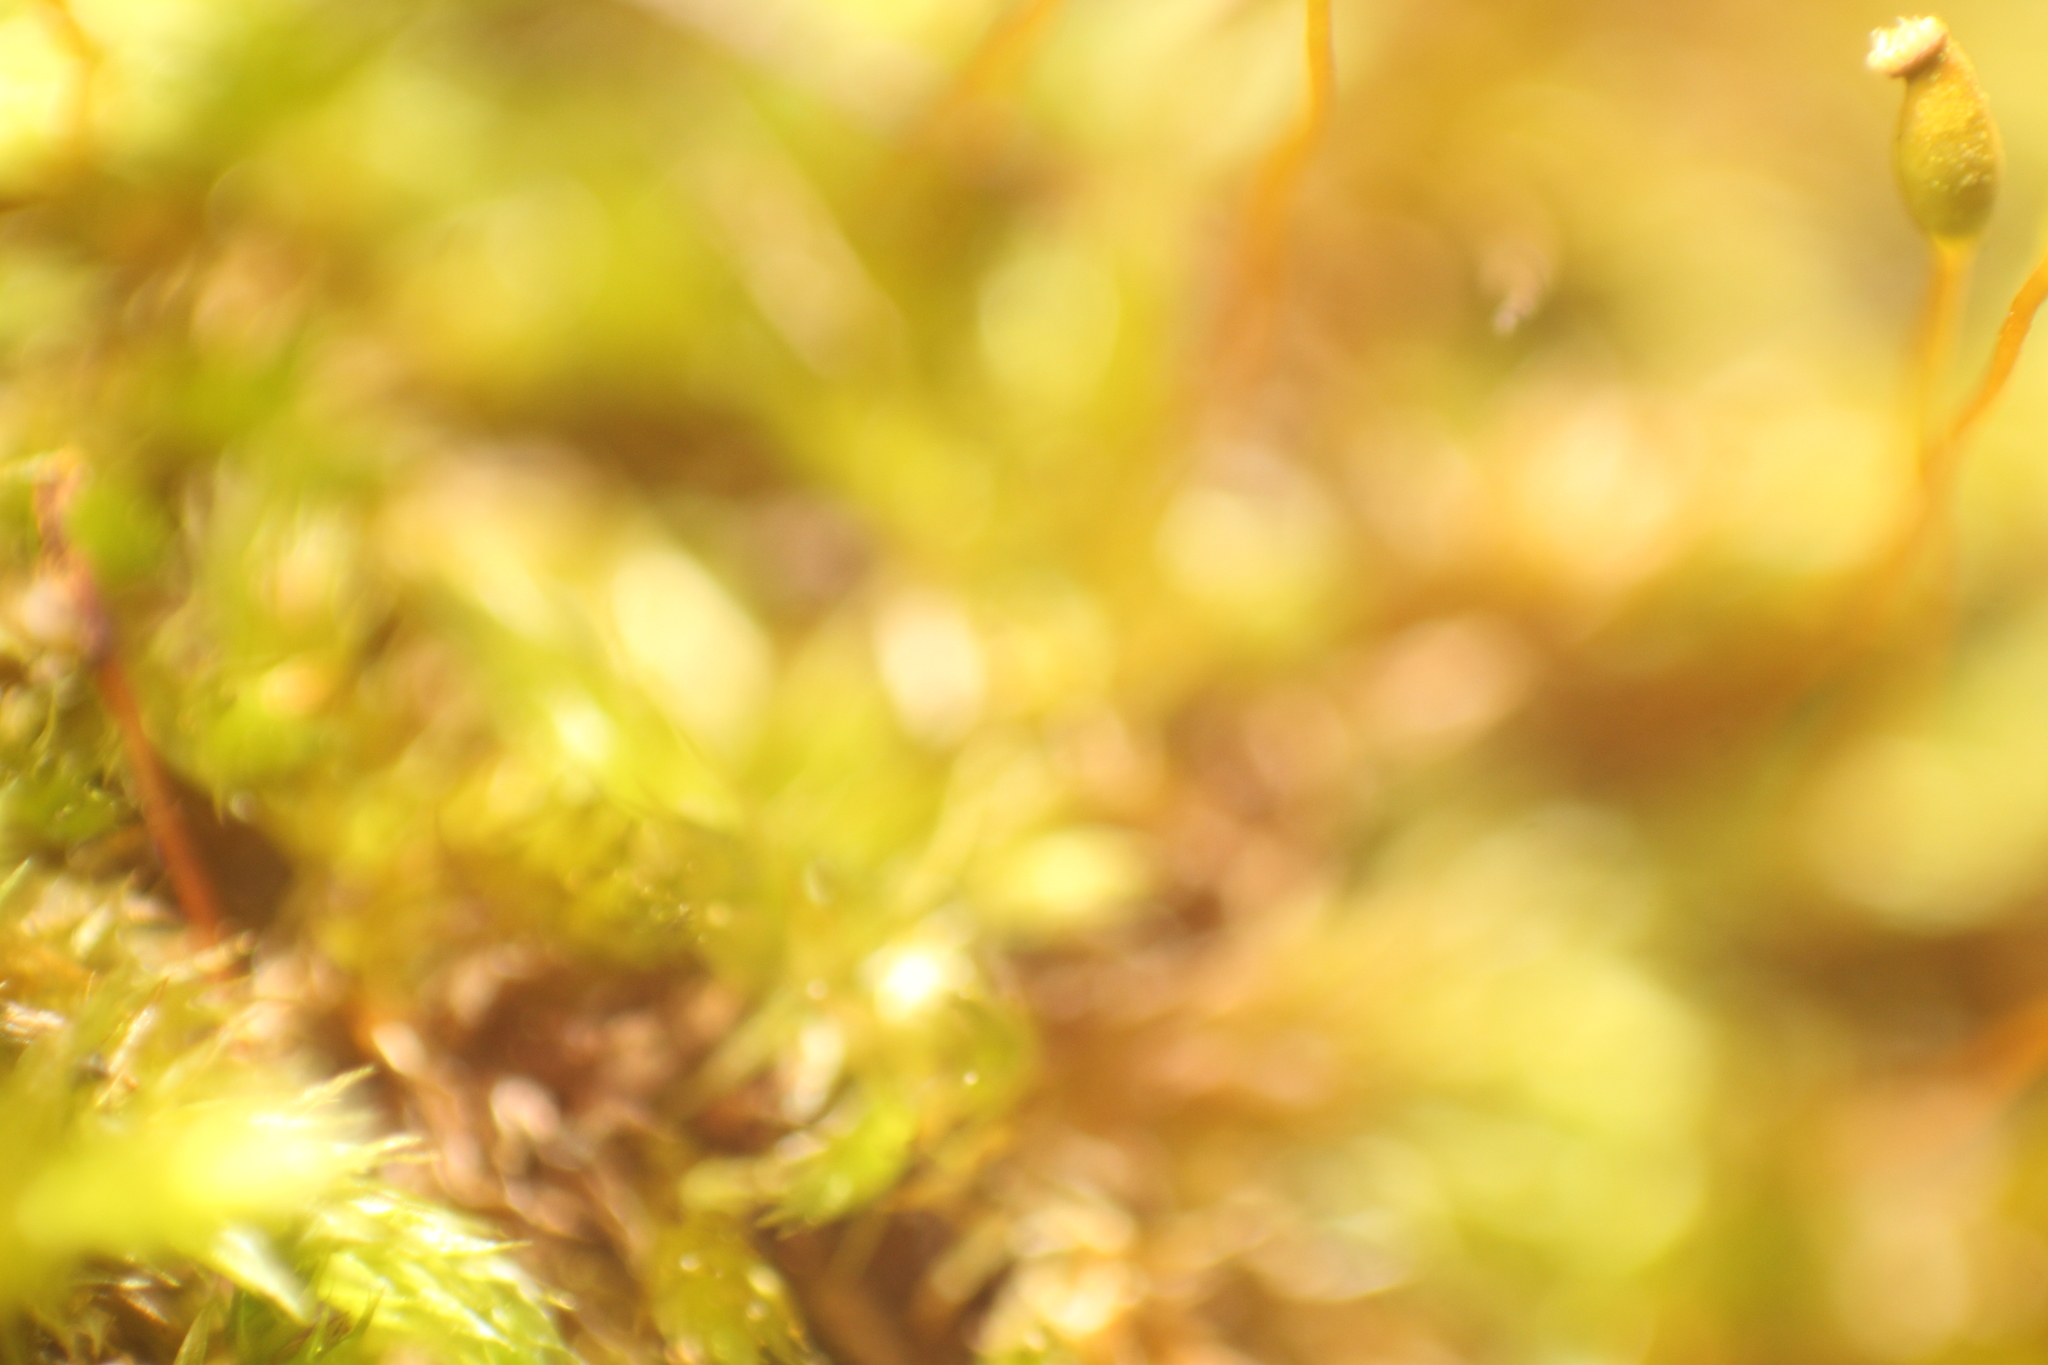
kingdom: Plantae
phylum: Bryophyta
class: Bryopsida
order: Hypnales
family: Sematophyllaceae
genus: Sematophyllum
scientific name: Sematophyllum homomallum
